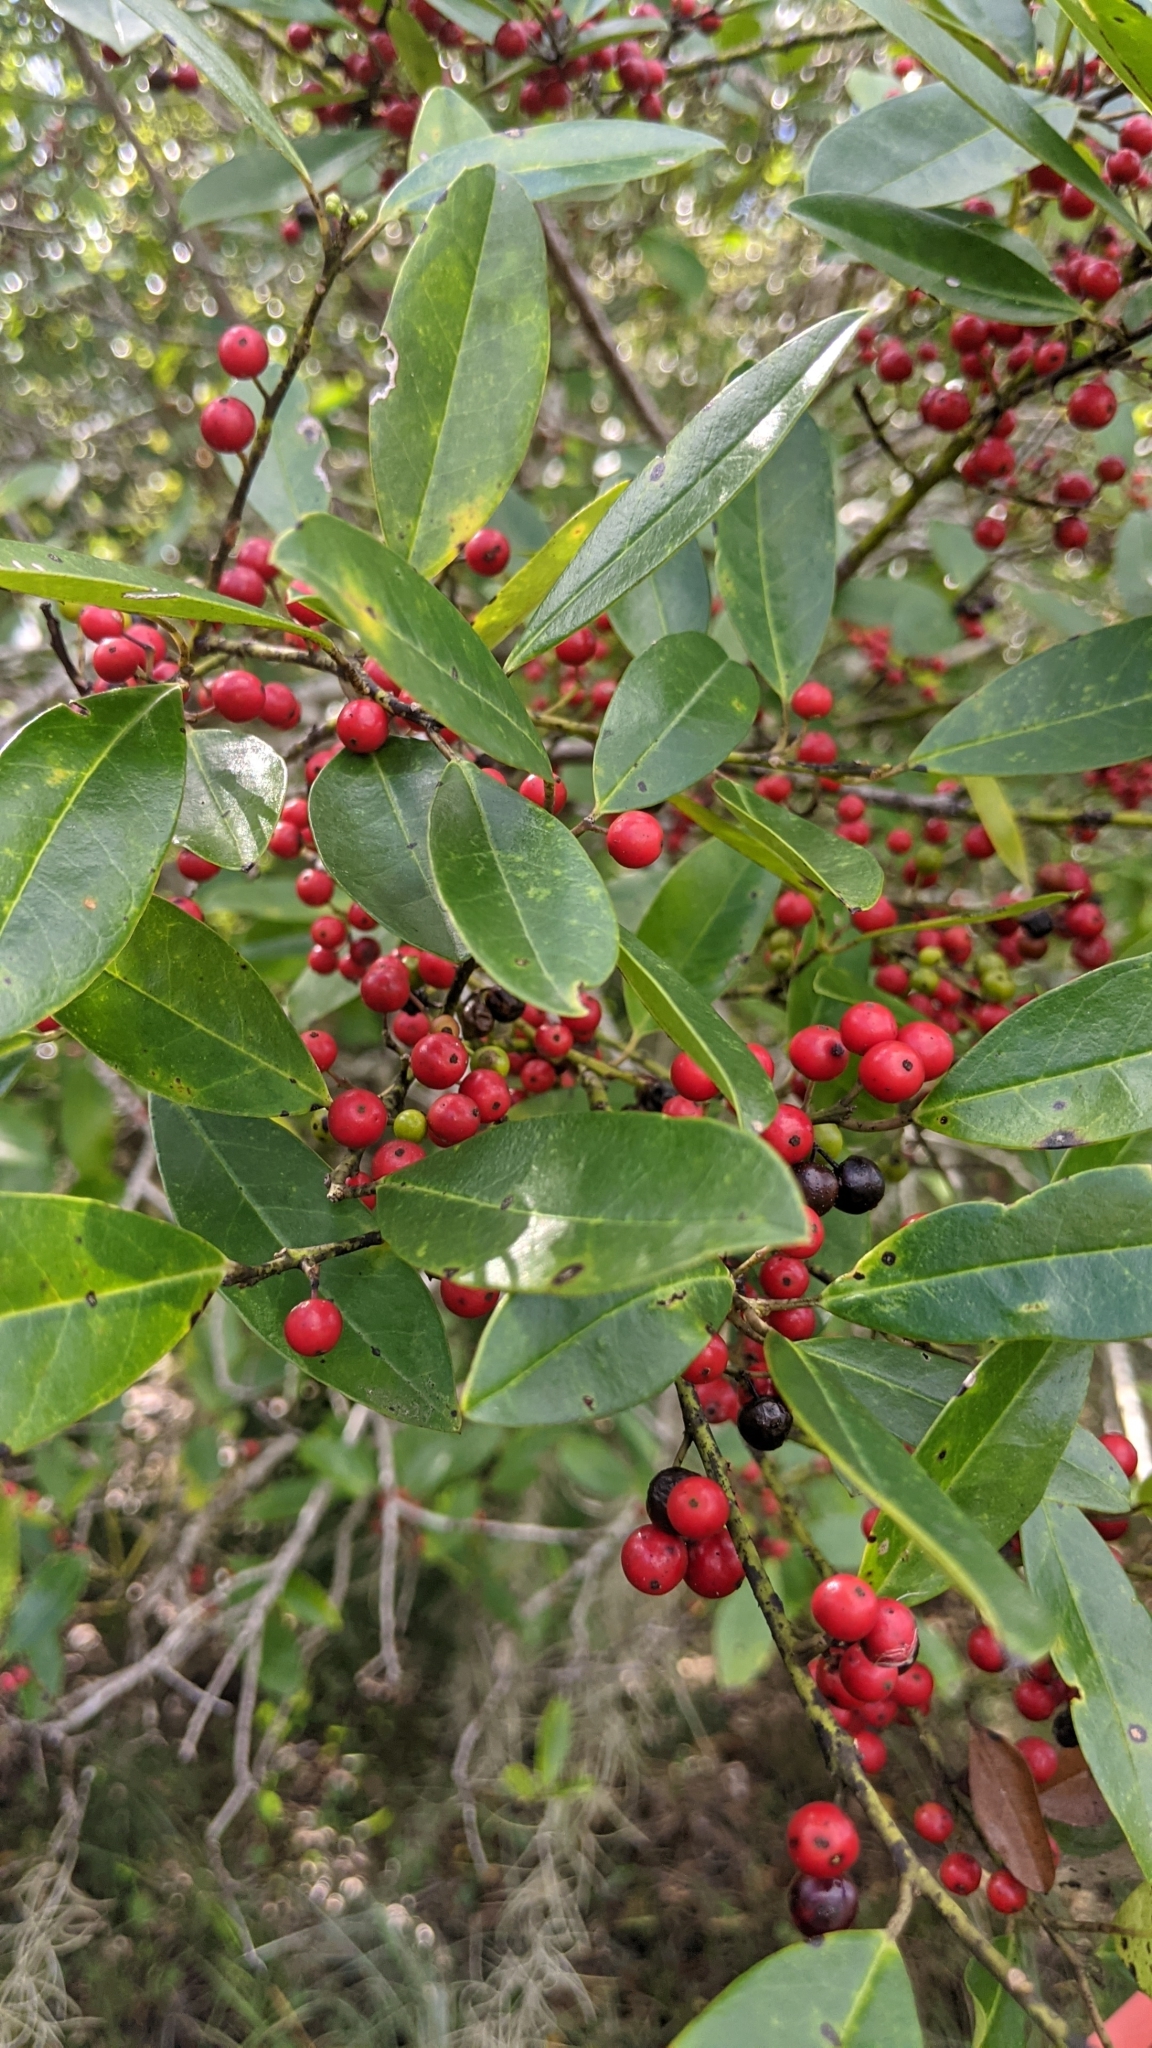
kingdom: Plantae
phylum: Tracheophyta
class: Magnoliopsida
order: Aquifoliales
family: Aquifoliaceae
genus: Ilex
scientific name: Ilex cassine
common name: Dahoon
